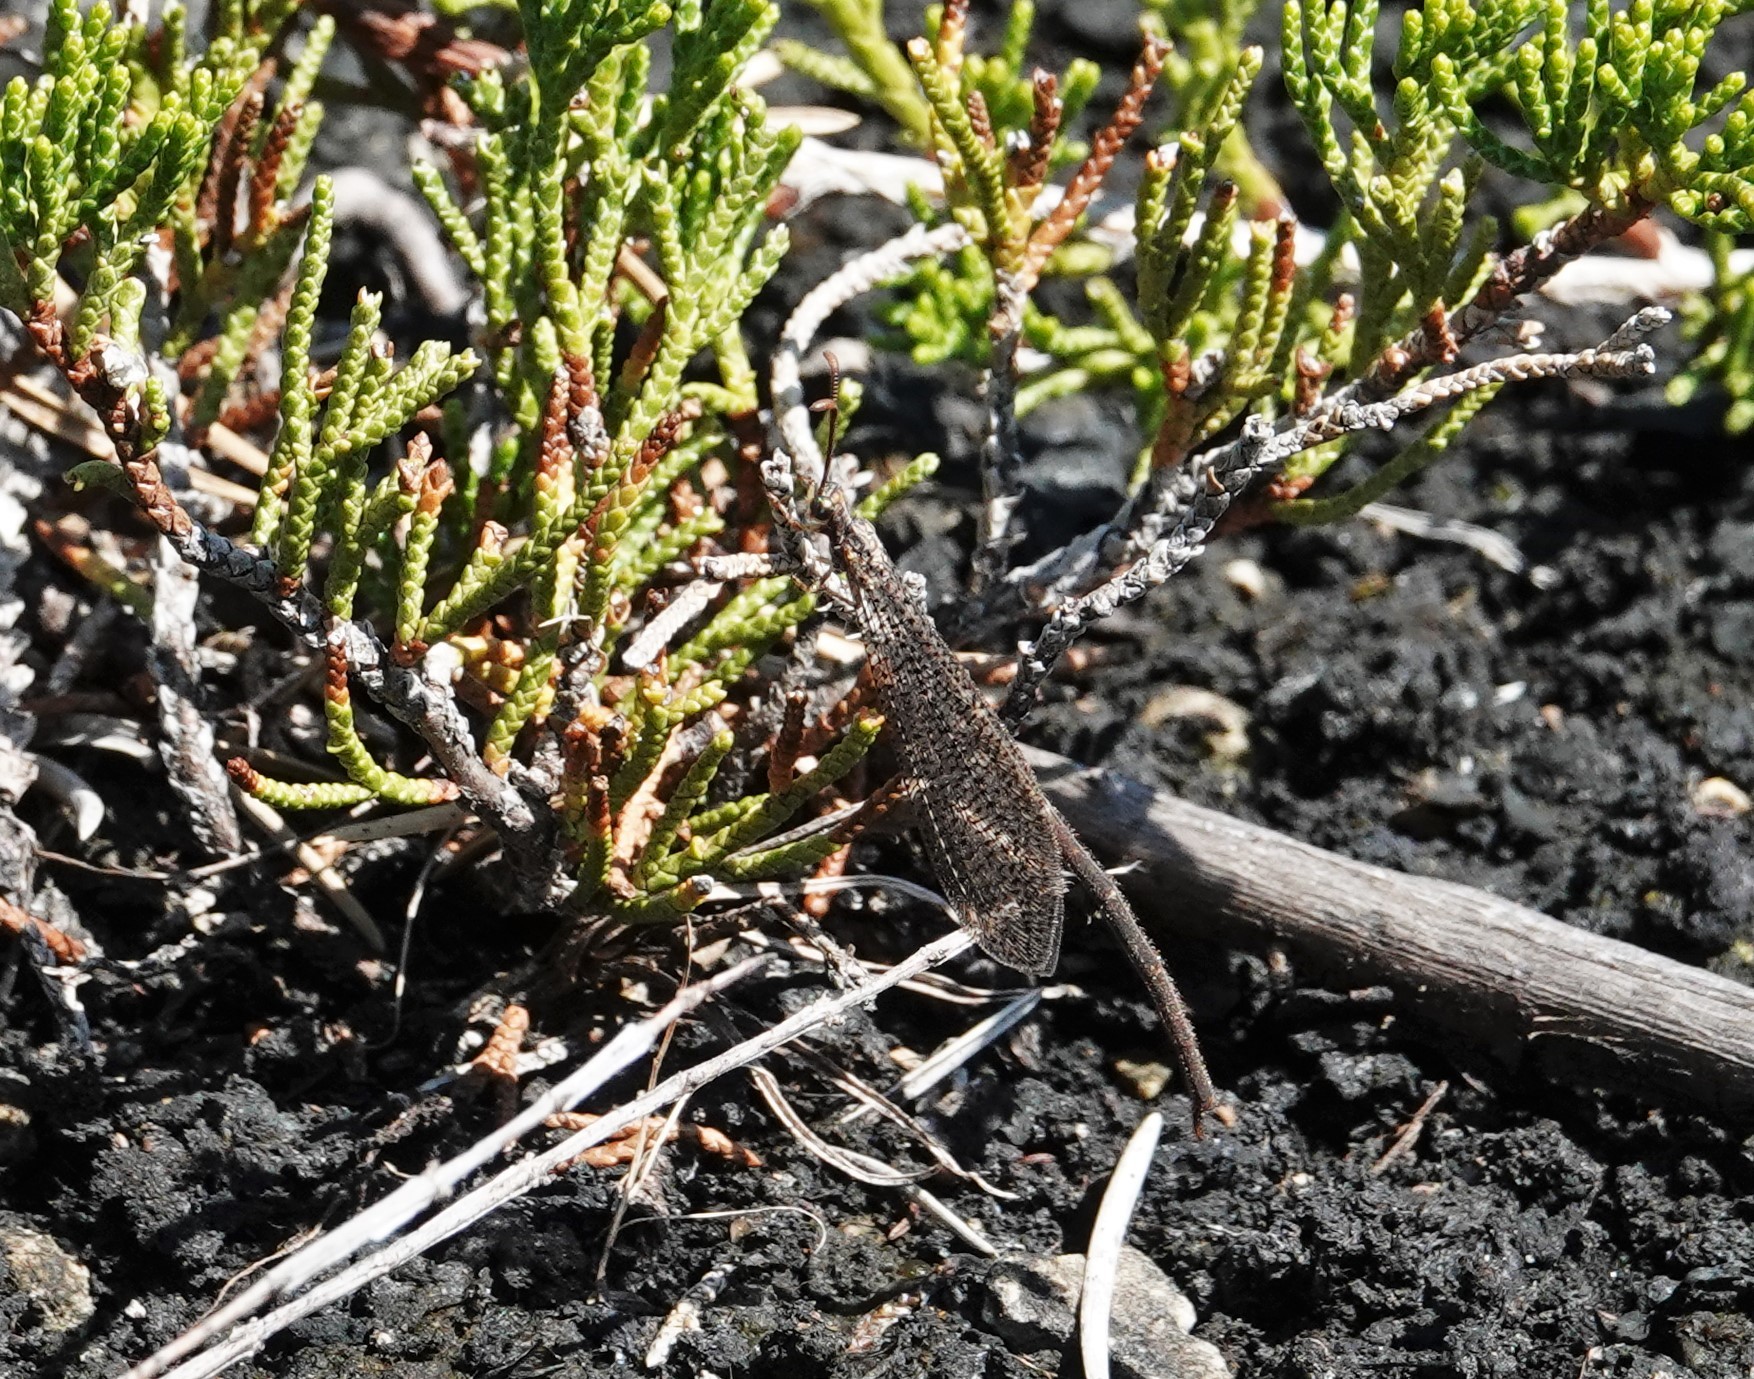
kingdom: Animalia
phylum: Arthropoda
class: Insecta
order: Neuroptera
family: Myrmeleontidae
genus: Brachynemurus
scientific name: Brachynemurus abdominalis
